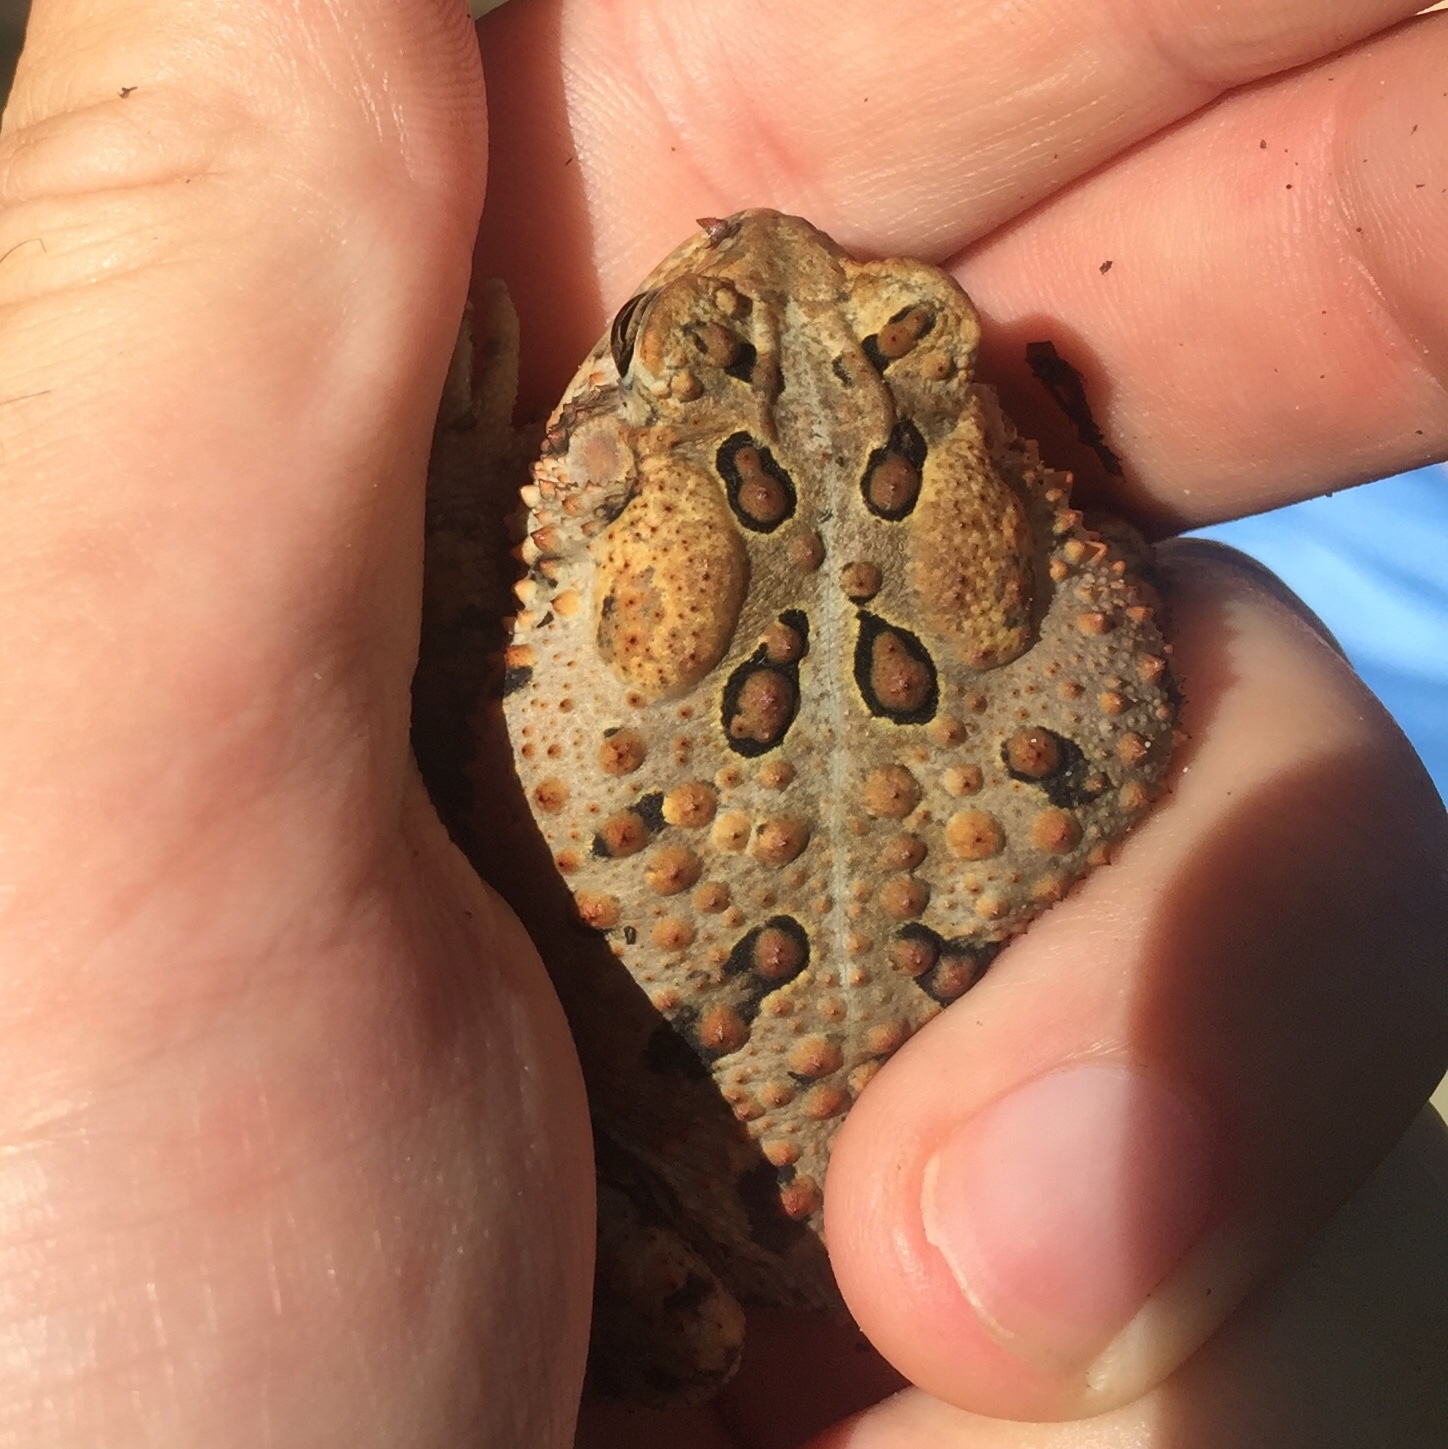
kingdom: Animalia
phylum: Chordata
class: Amphibia
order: Anura
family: Bufonidae
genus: Anaxyrus
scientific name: Anaxyrus americanus
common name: American toad
